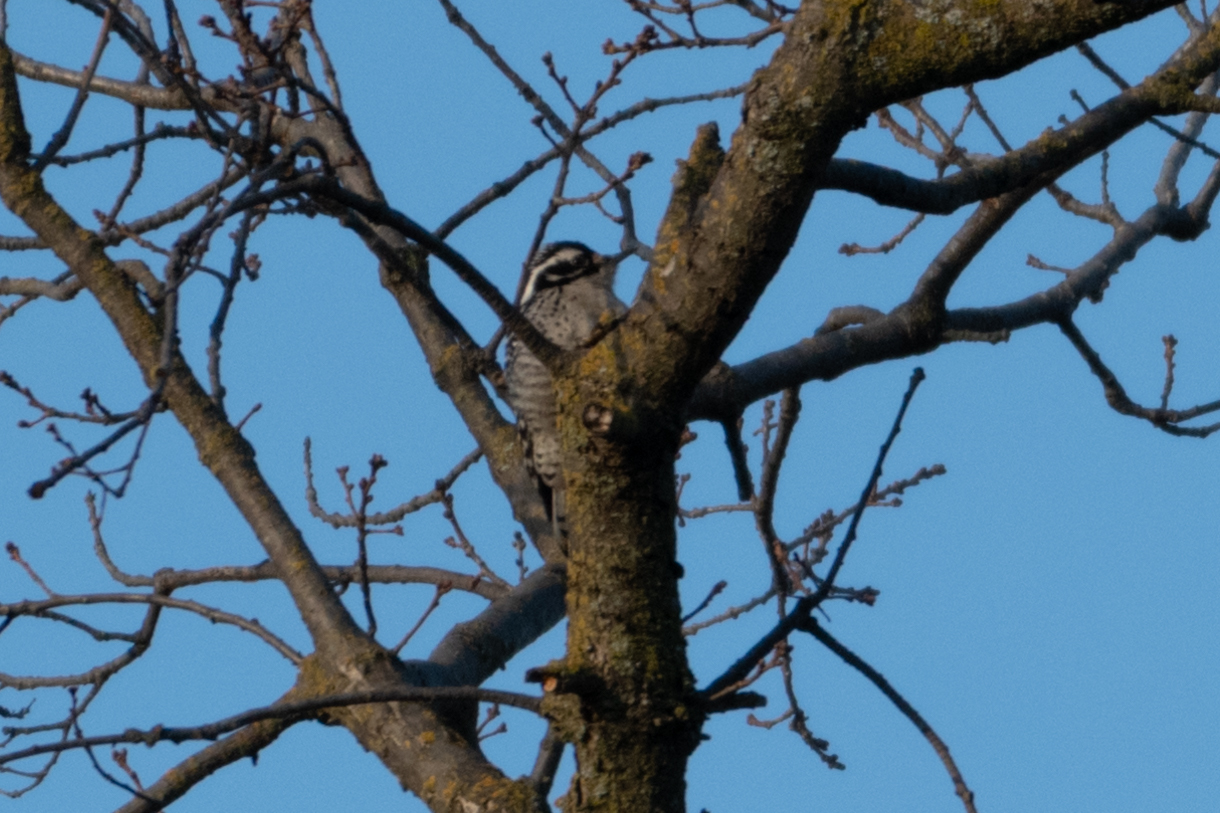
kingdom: Animalia
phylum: Chordata
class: Aves
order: Piciformes
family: Picidae
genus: Dryobates
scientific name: Dryobates nuttallii
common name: Nuttall's woodpecker
